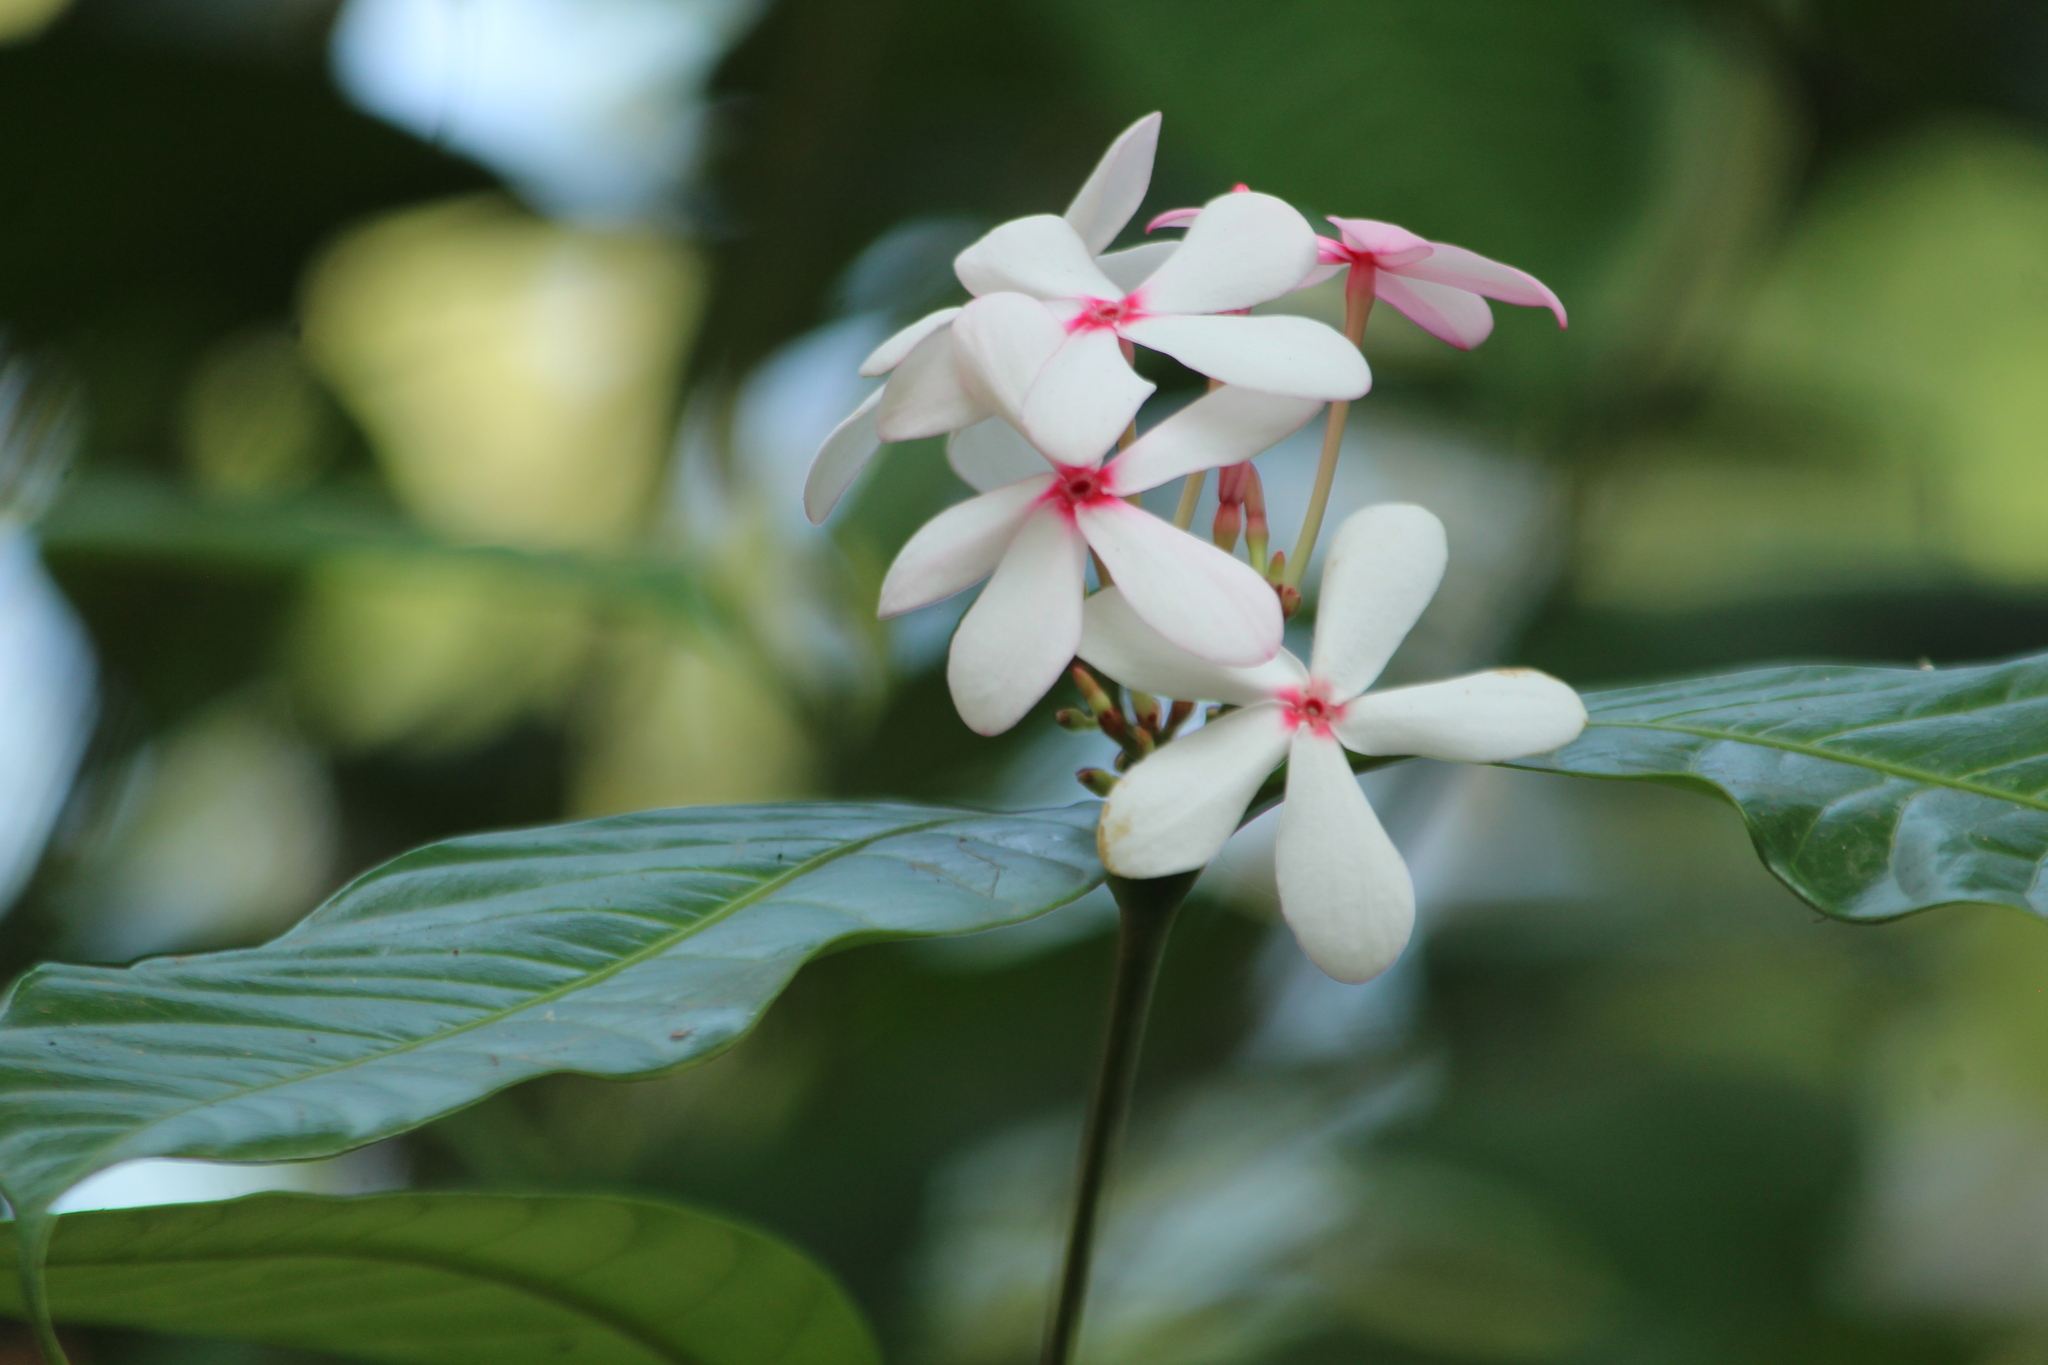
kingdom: Plantae
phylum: Tracheophyta
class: Magnoliopsida
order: Gentianales
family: Apocynaceae
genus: Kopsia
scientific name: Kopsia fruticosa
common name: Shrub-vinca
